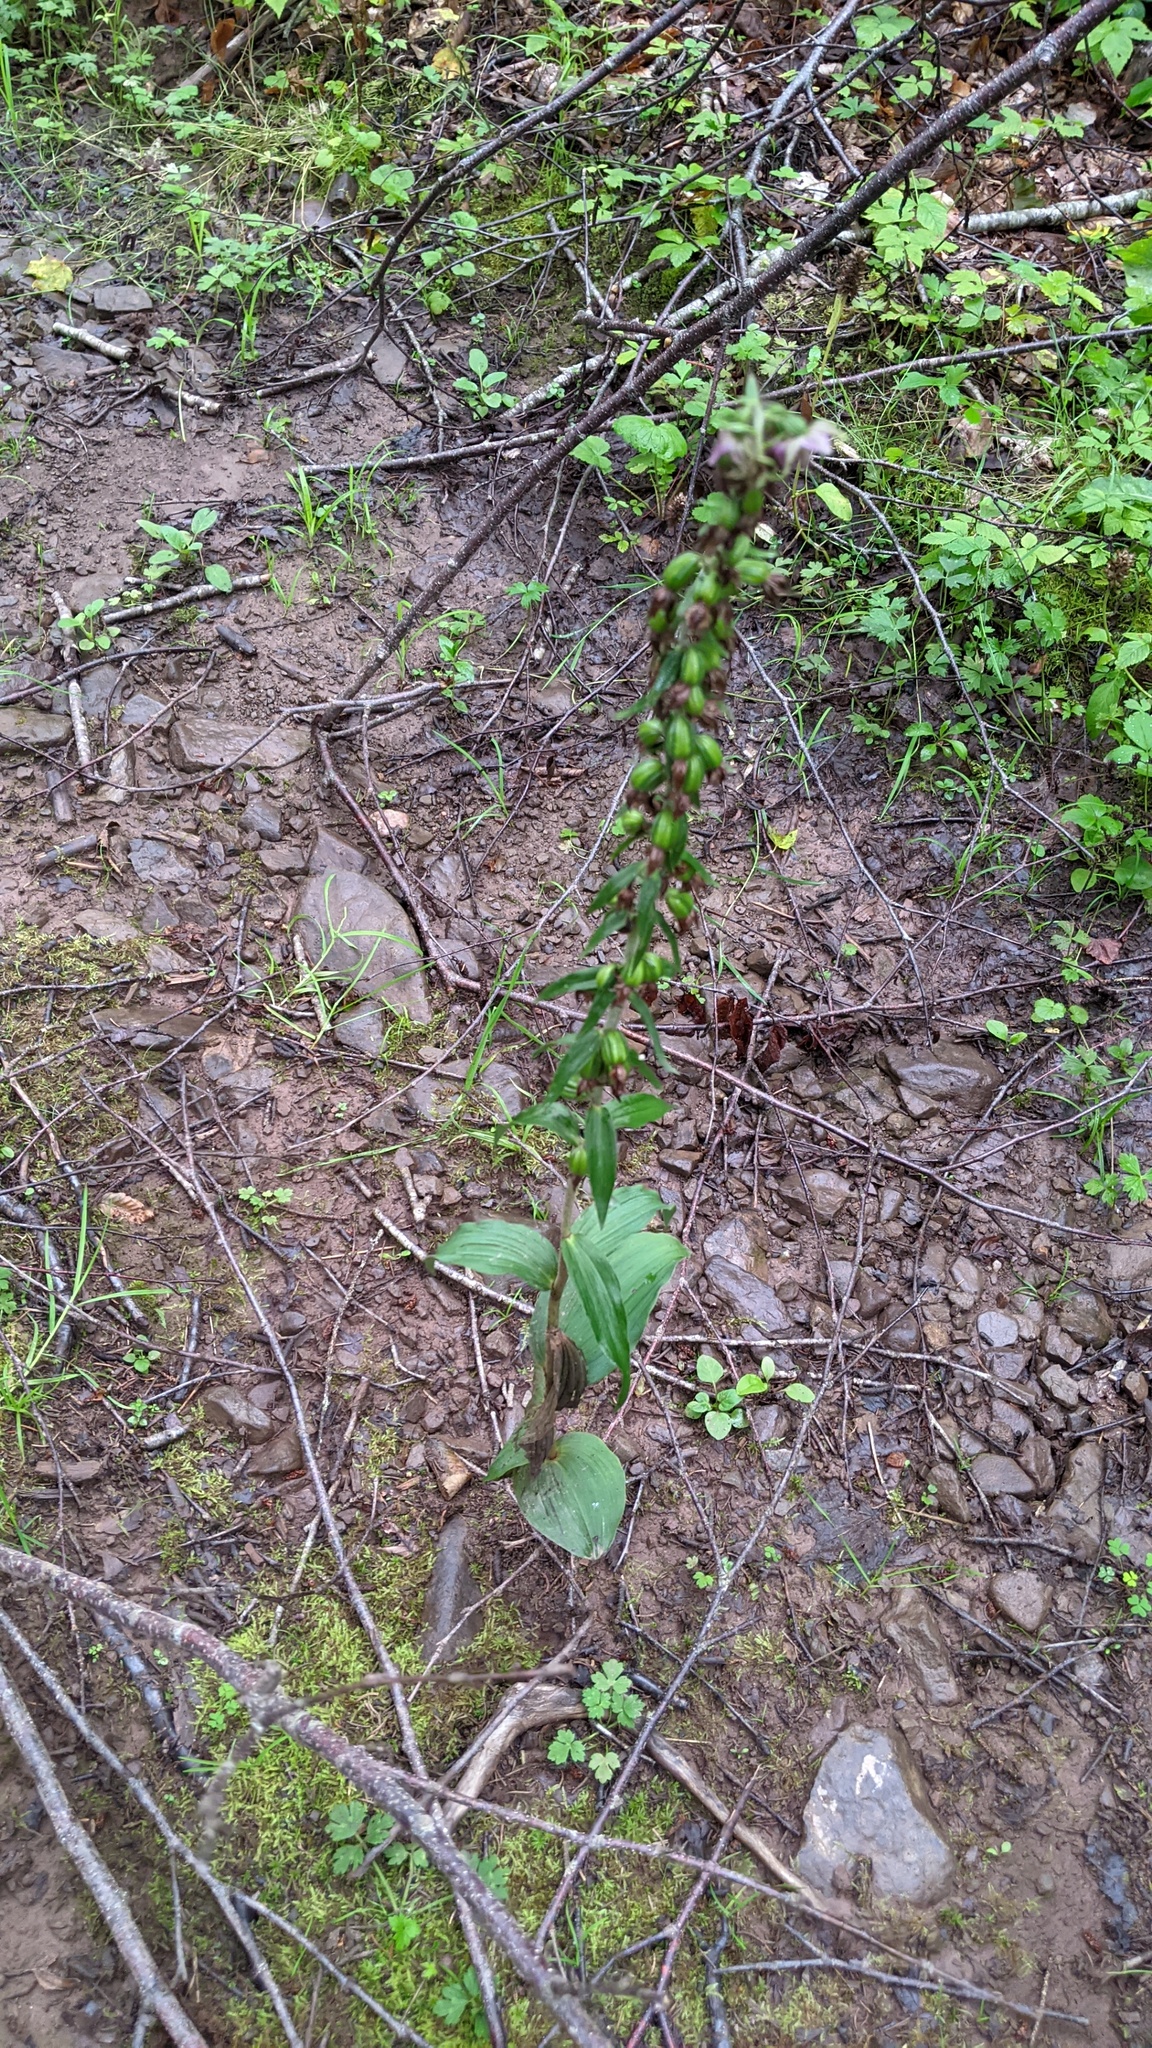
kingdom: Plantae
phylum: Tracheophyta
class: Liliopsida
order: Asparagales
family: Orchidaceae
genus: Epipactis
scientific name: Epipactis helleborine
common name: Broad-leaved helleborine
